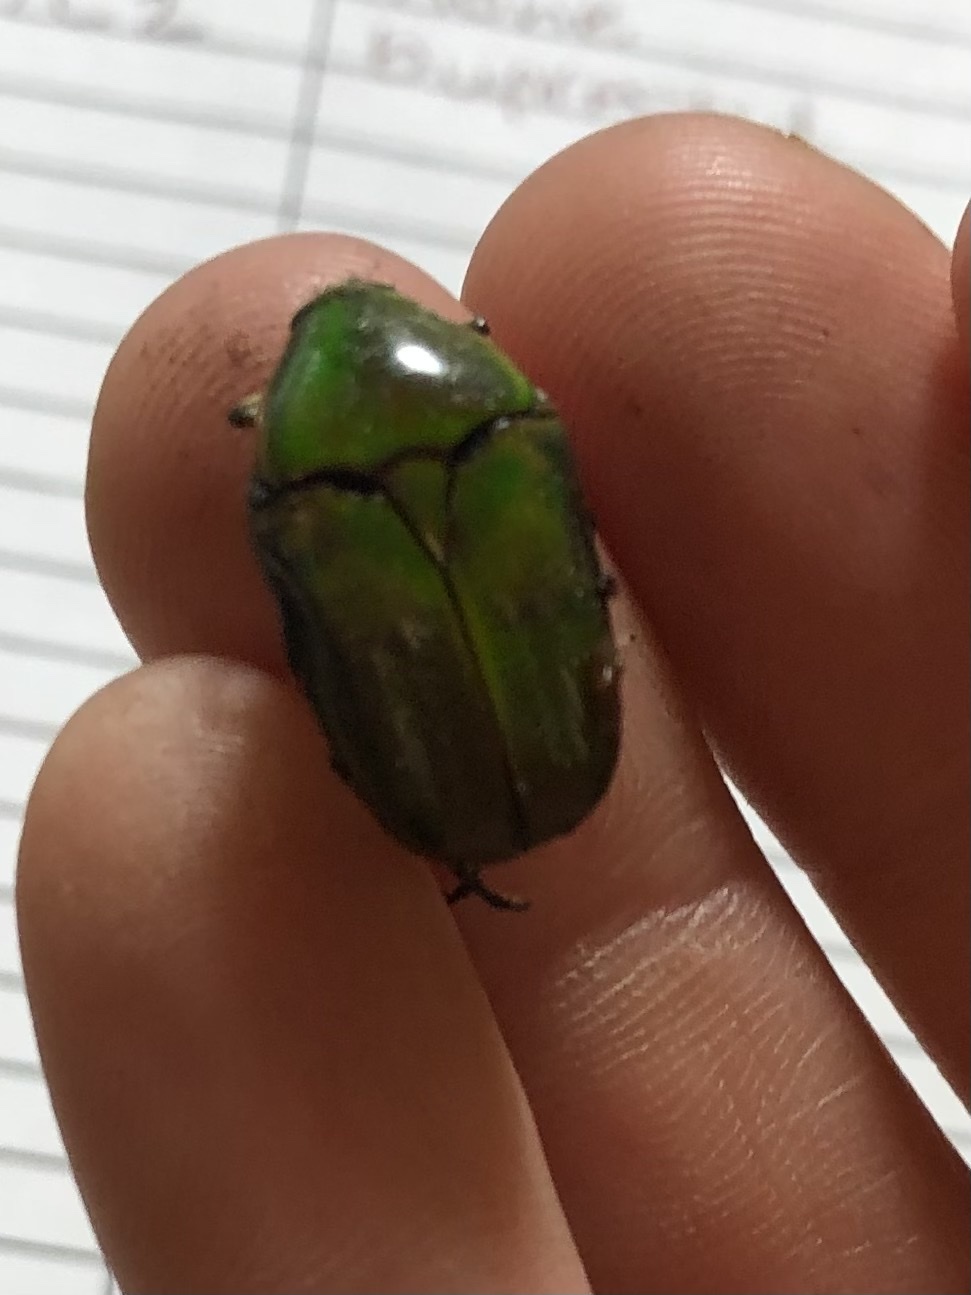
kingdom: Animalia
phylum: Arthropoda
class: Insecta
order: Coleoptera
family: Scarabaeidae
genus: Euphoria
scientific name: Euphoria fulgida
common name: Emerald euphoria
